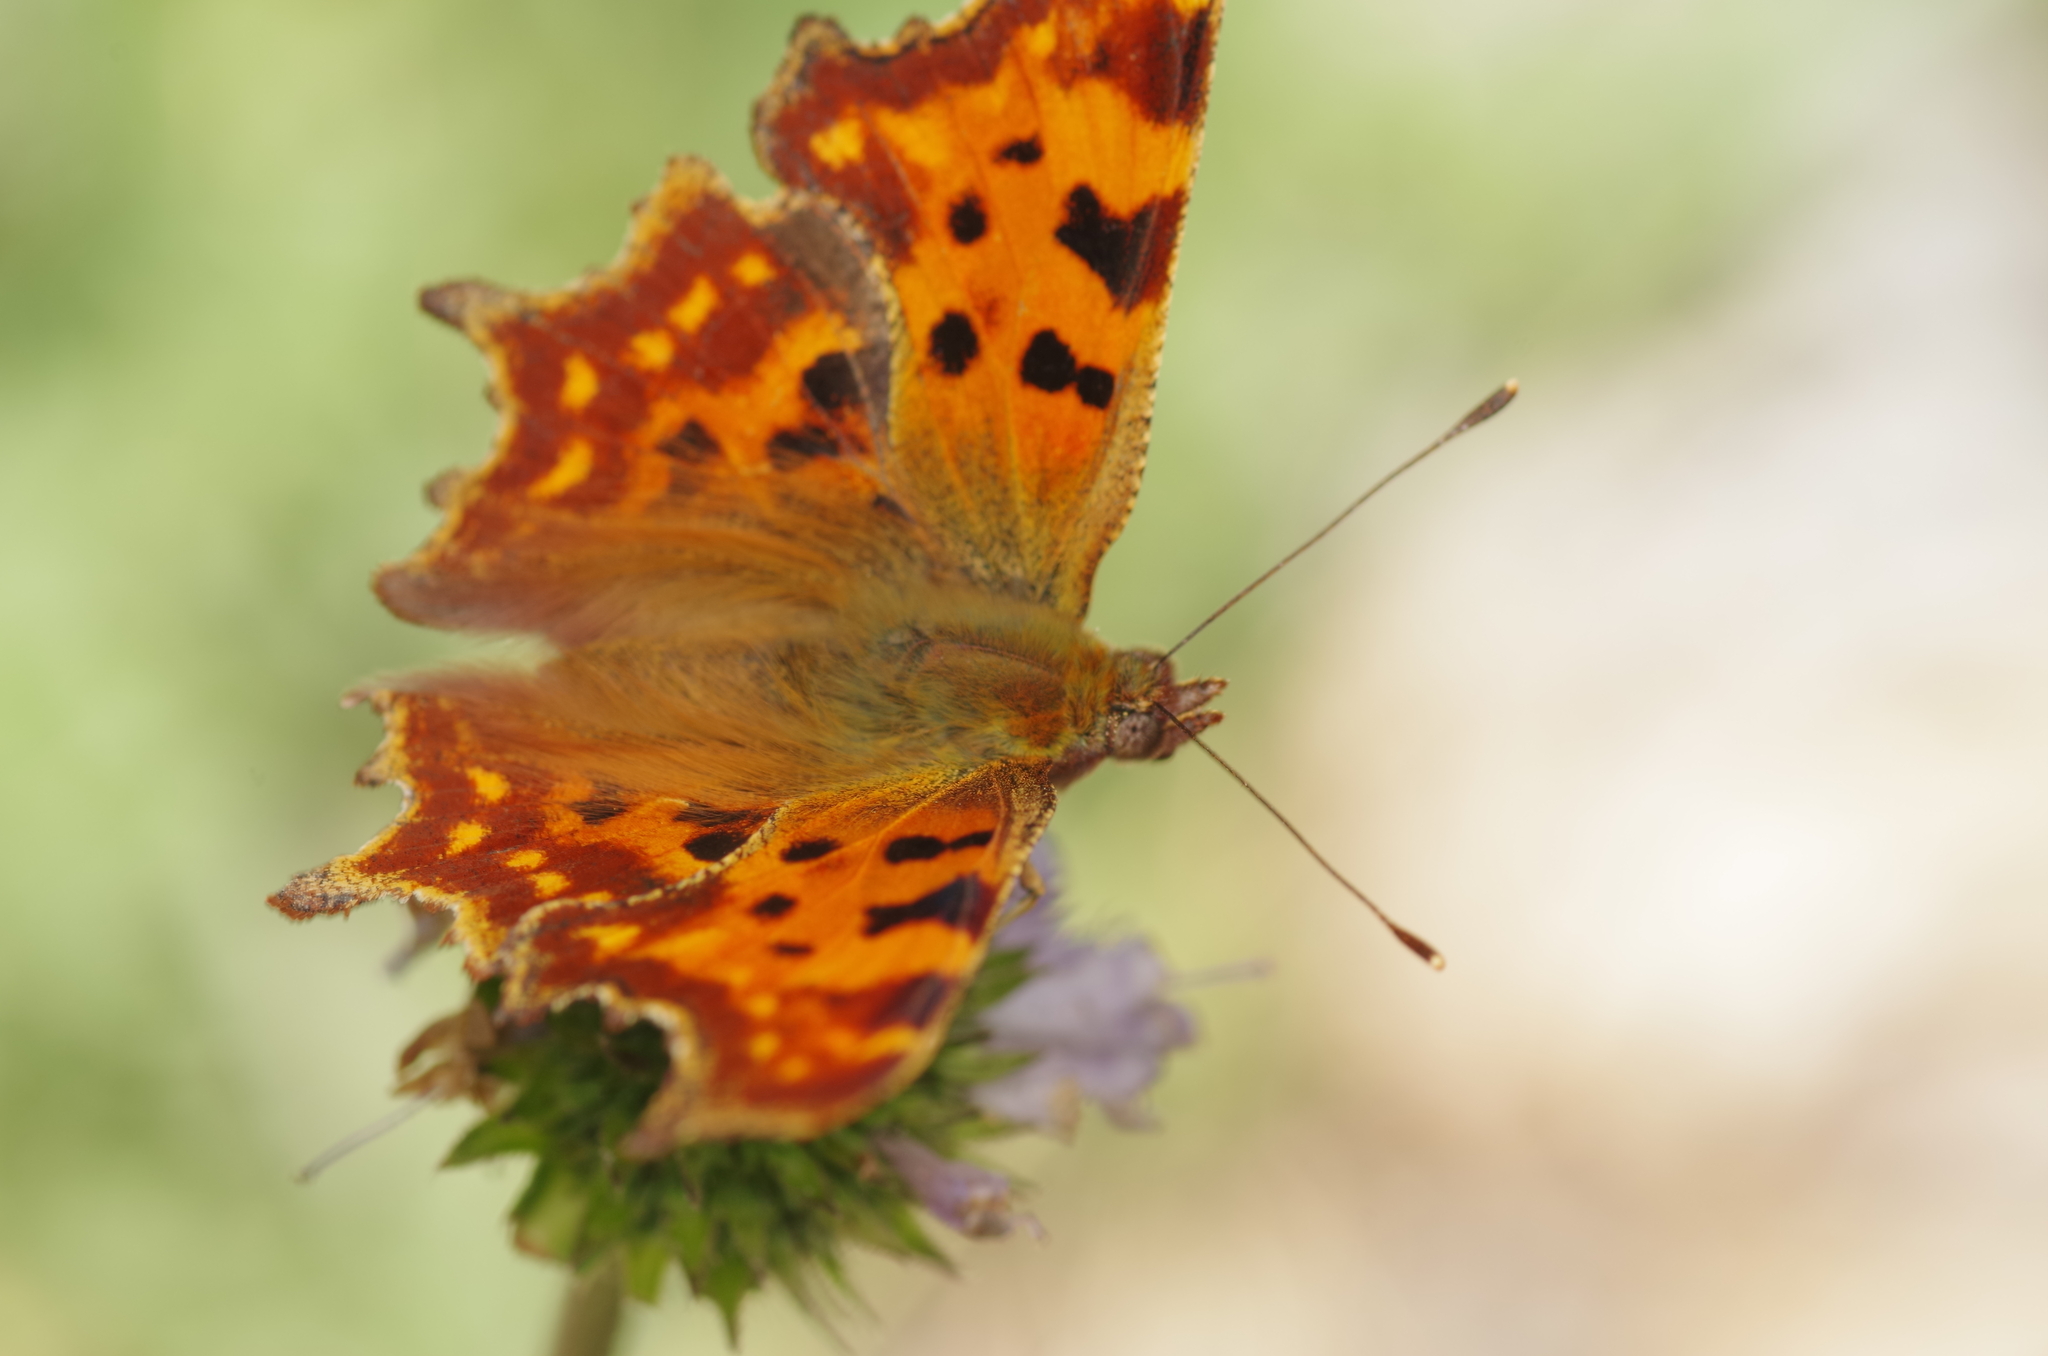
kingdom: Animalia
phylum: Arthropoda
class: Insecta
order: Lepidoptera
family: Nymphalidae
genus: Polygonia
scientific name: Polygonia c-album
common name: Comma
